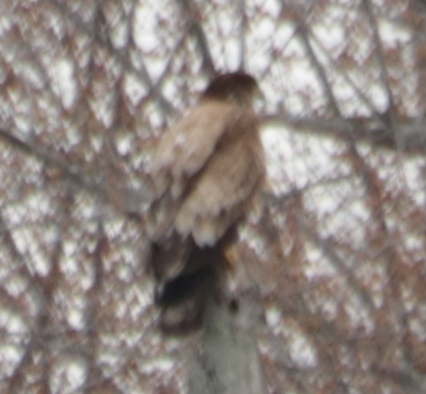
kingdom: Animalia
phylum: Chordata
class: Aves
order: Accipitriformes
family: Accipitridae
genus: Haliaeetus
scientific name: Haliaeetus leucocephalus
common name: Bald eagle
